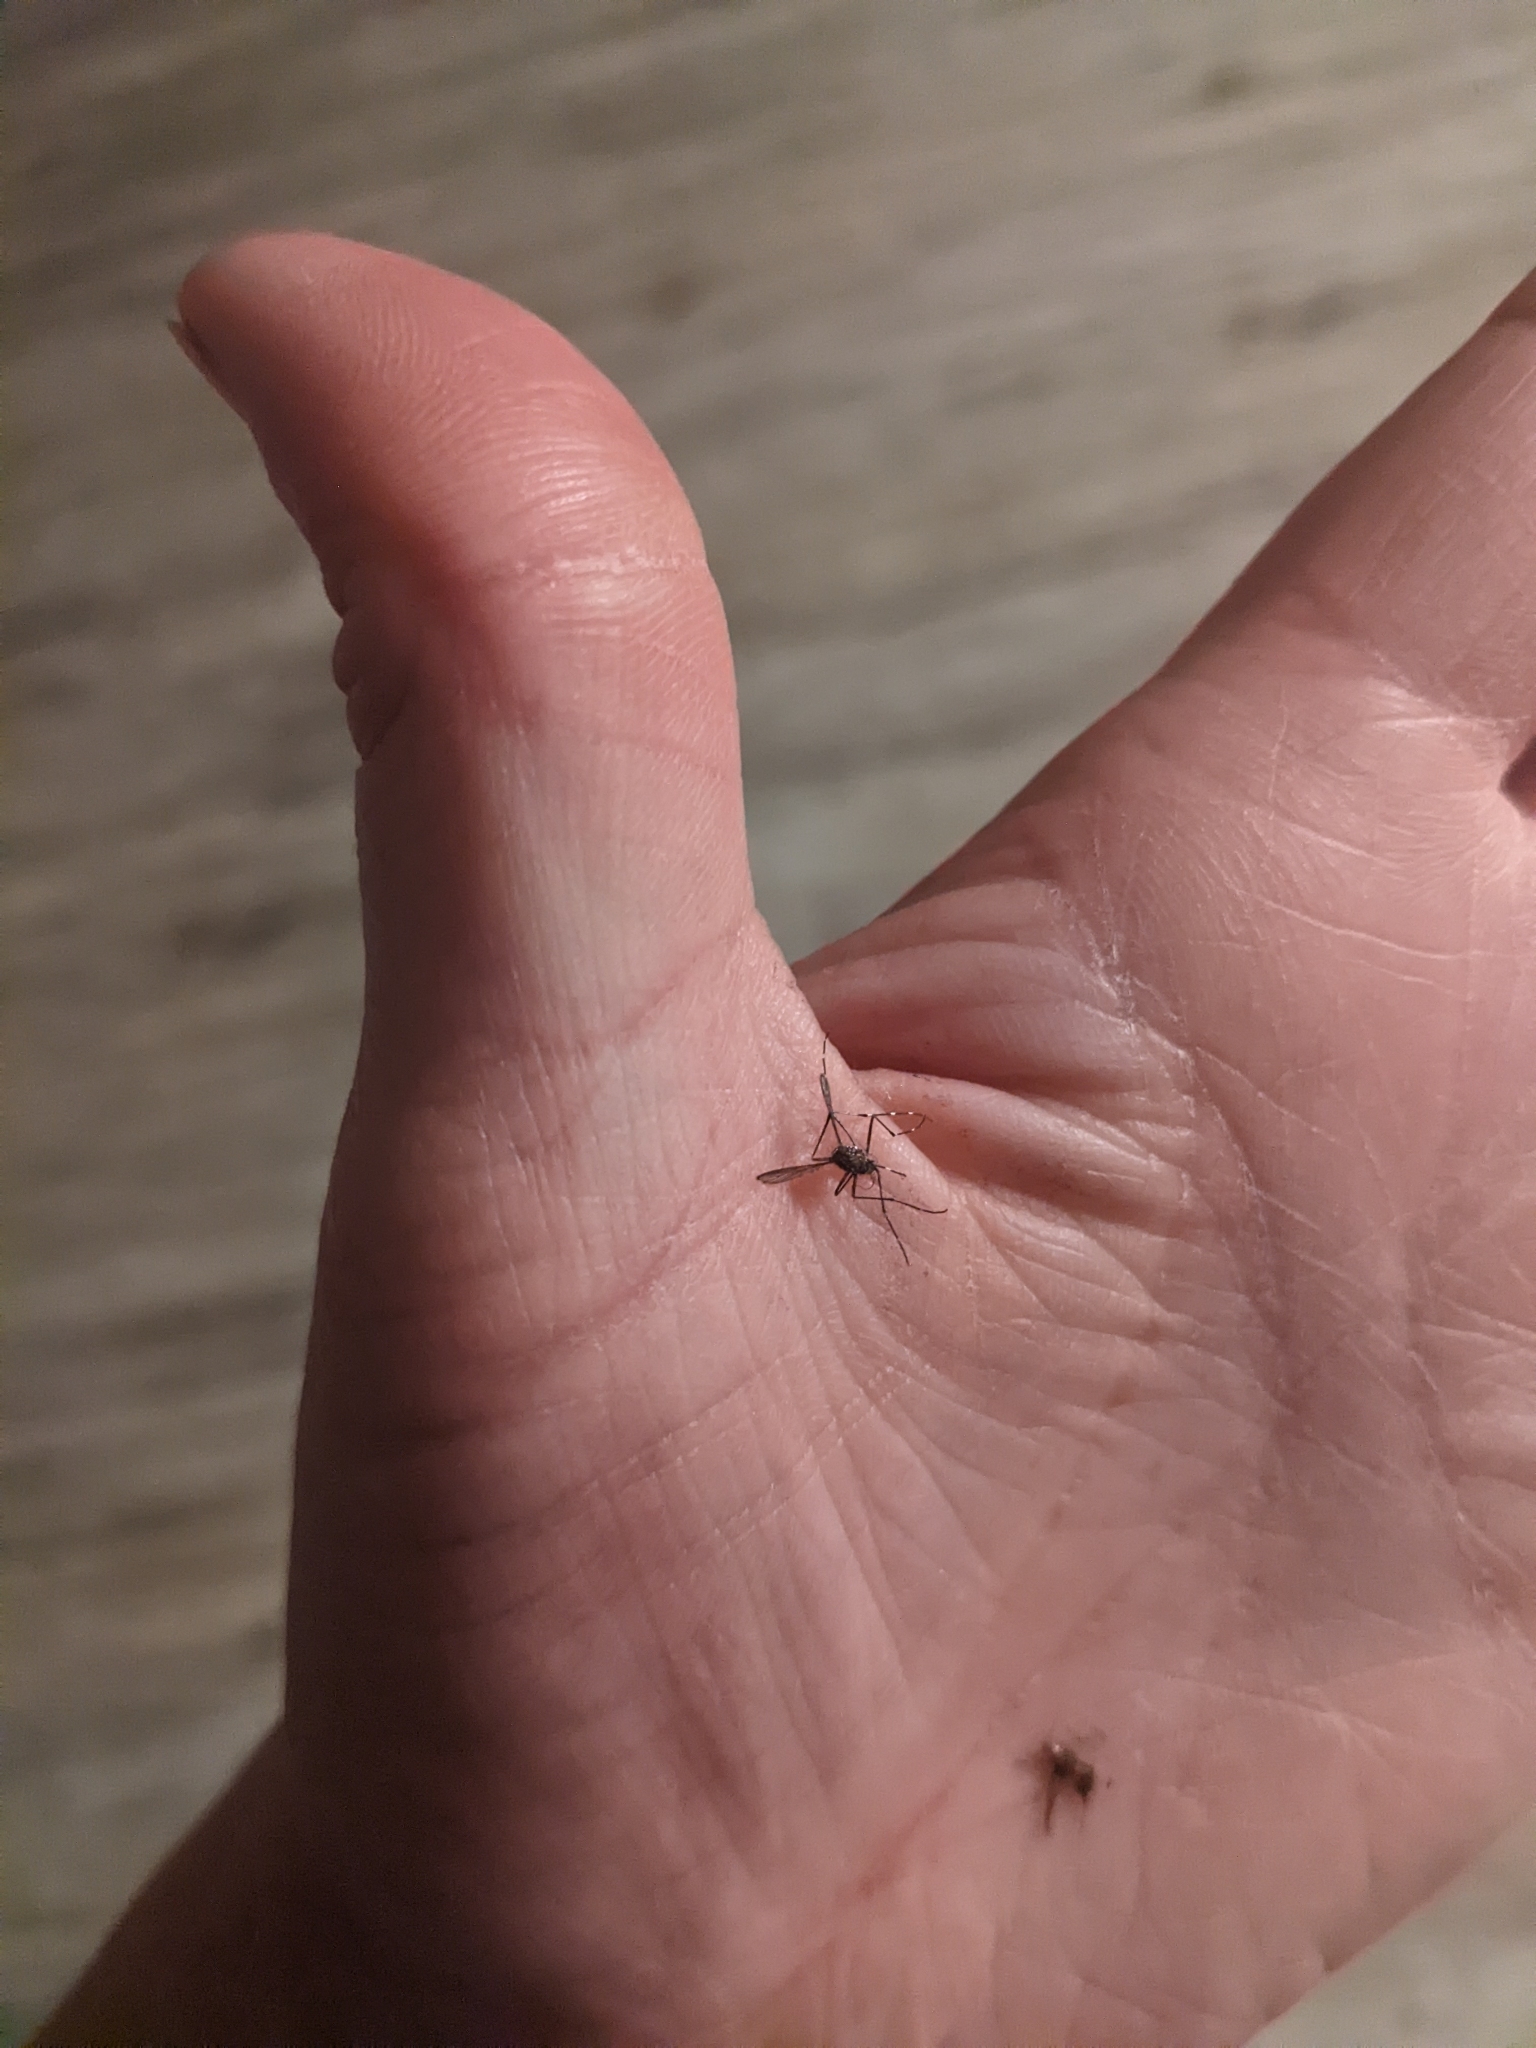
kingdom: Animalia
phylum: Arthropoda
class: Insecta
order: Diptera
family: Culicidae
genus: Aedes
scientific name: Aedes notoscriptus
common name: Australian backyard mosquito
